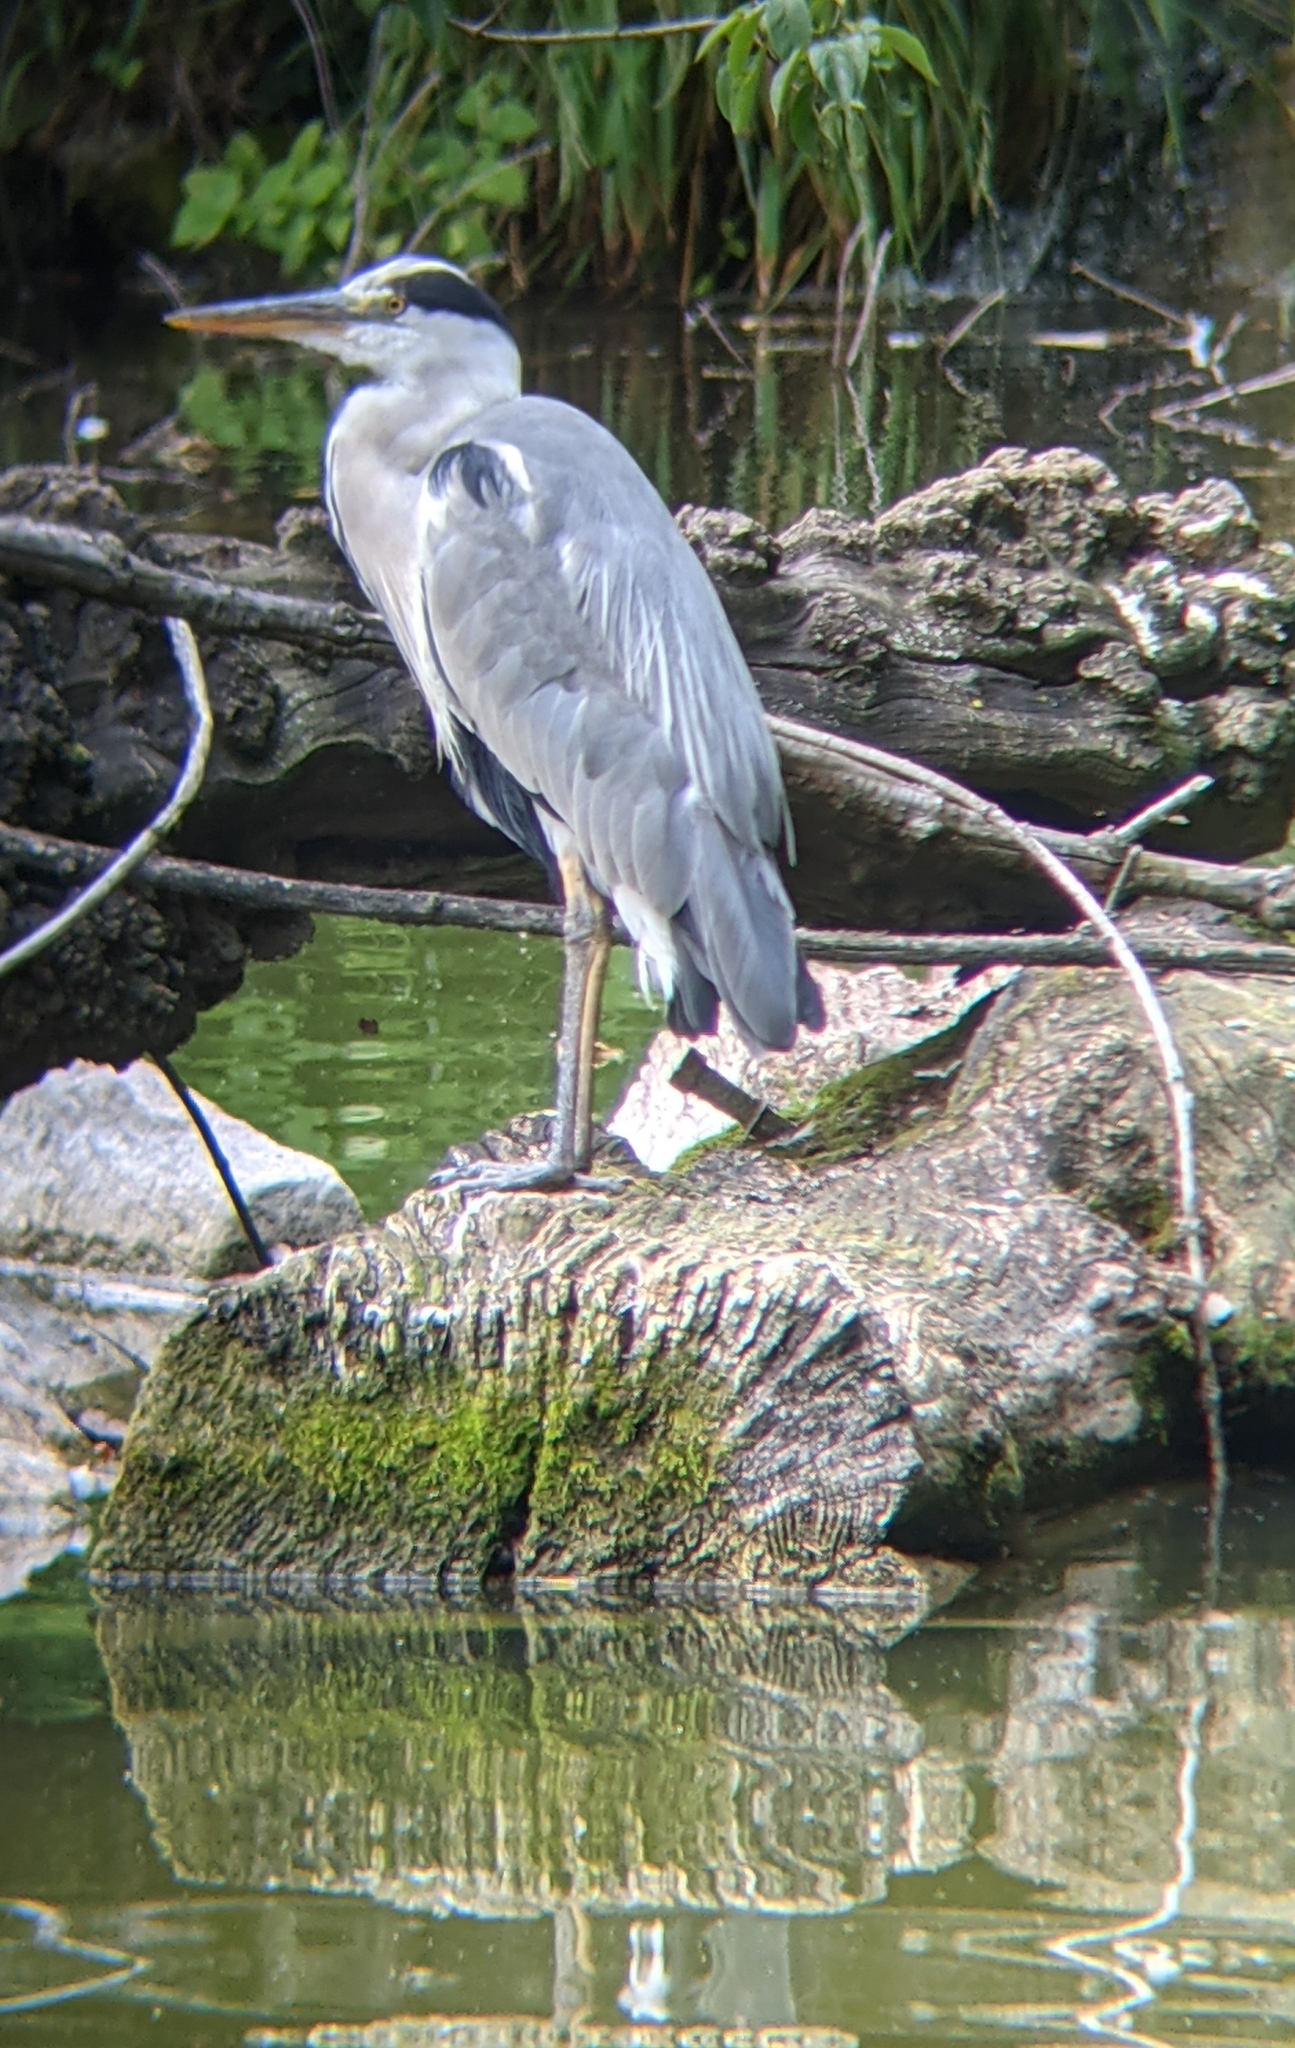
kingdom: Animalia
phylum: Chordata
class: Aves
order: Pelecaniformes
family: Ardeidae
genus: Ardea
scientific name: Ardea cinerea
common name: Grey heron
